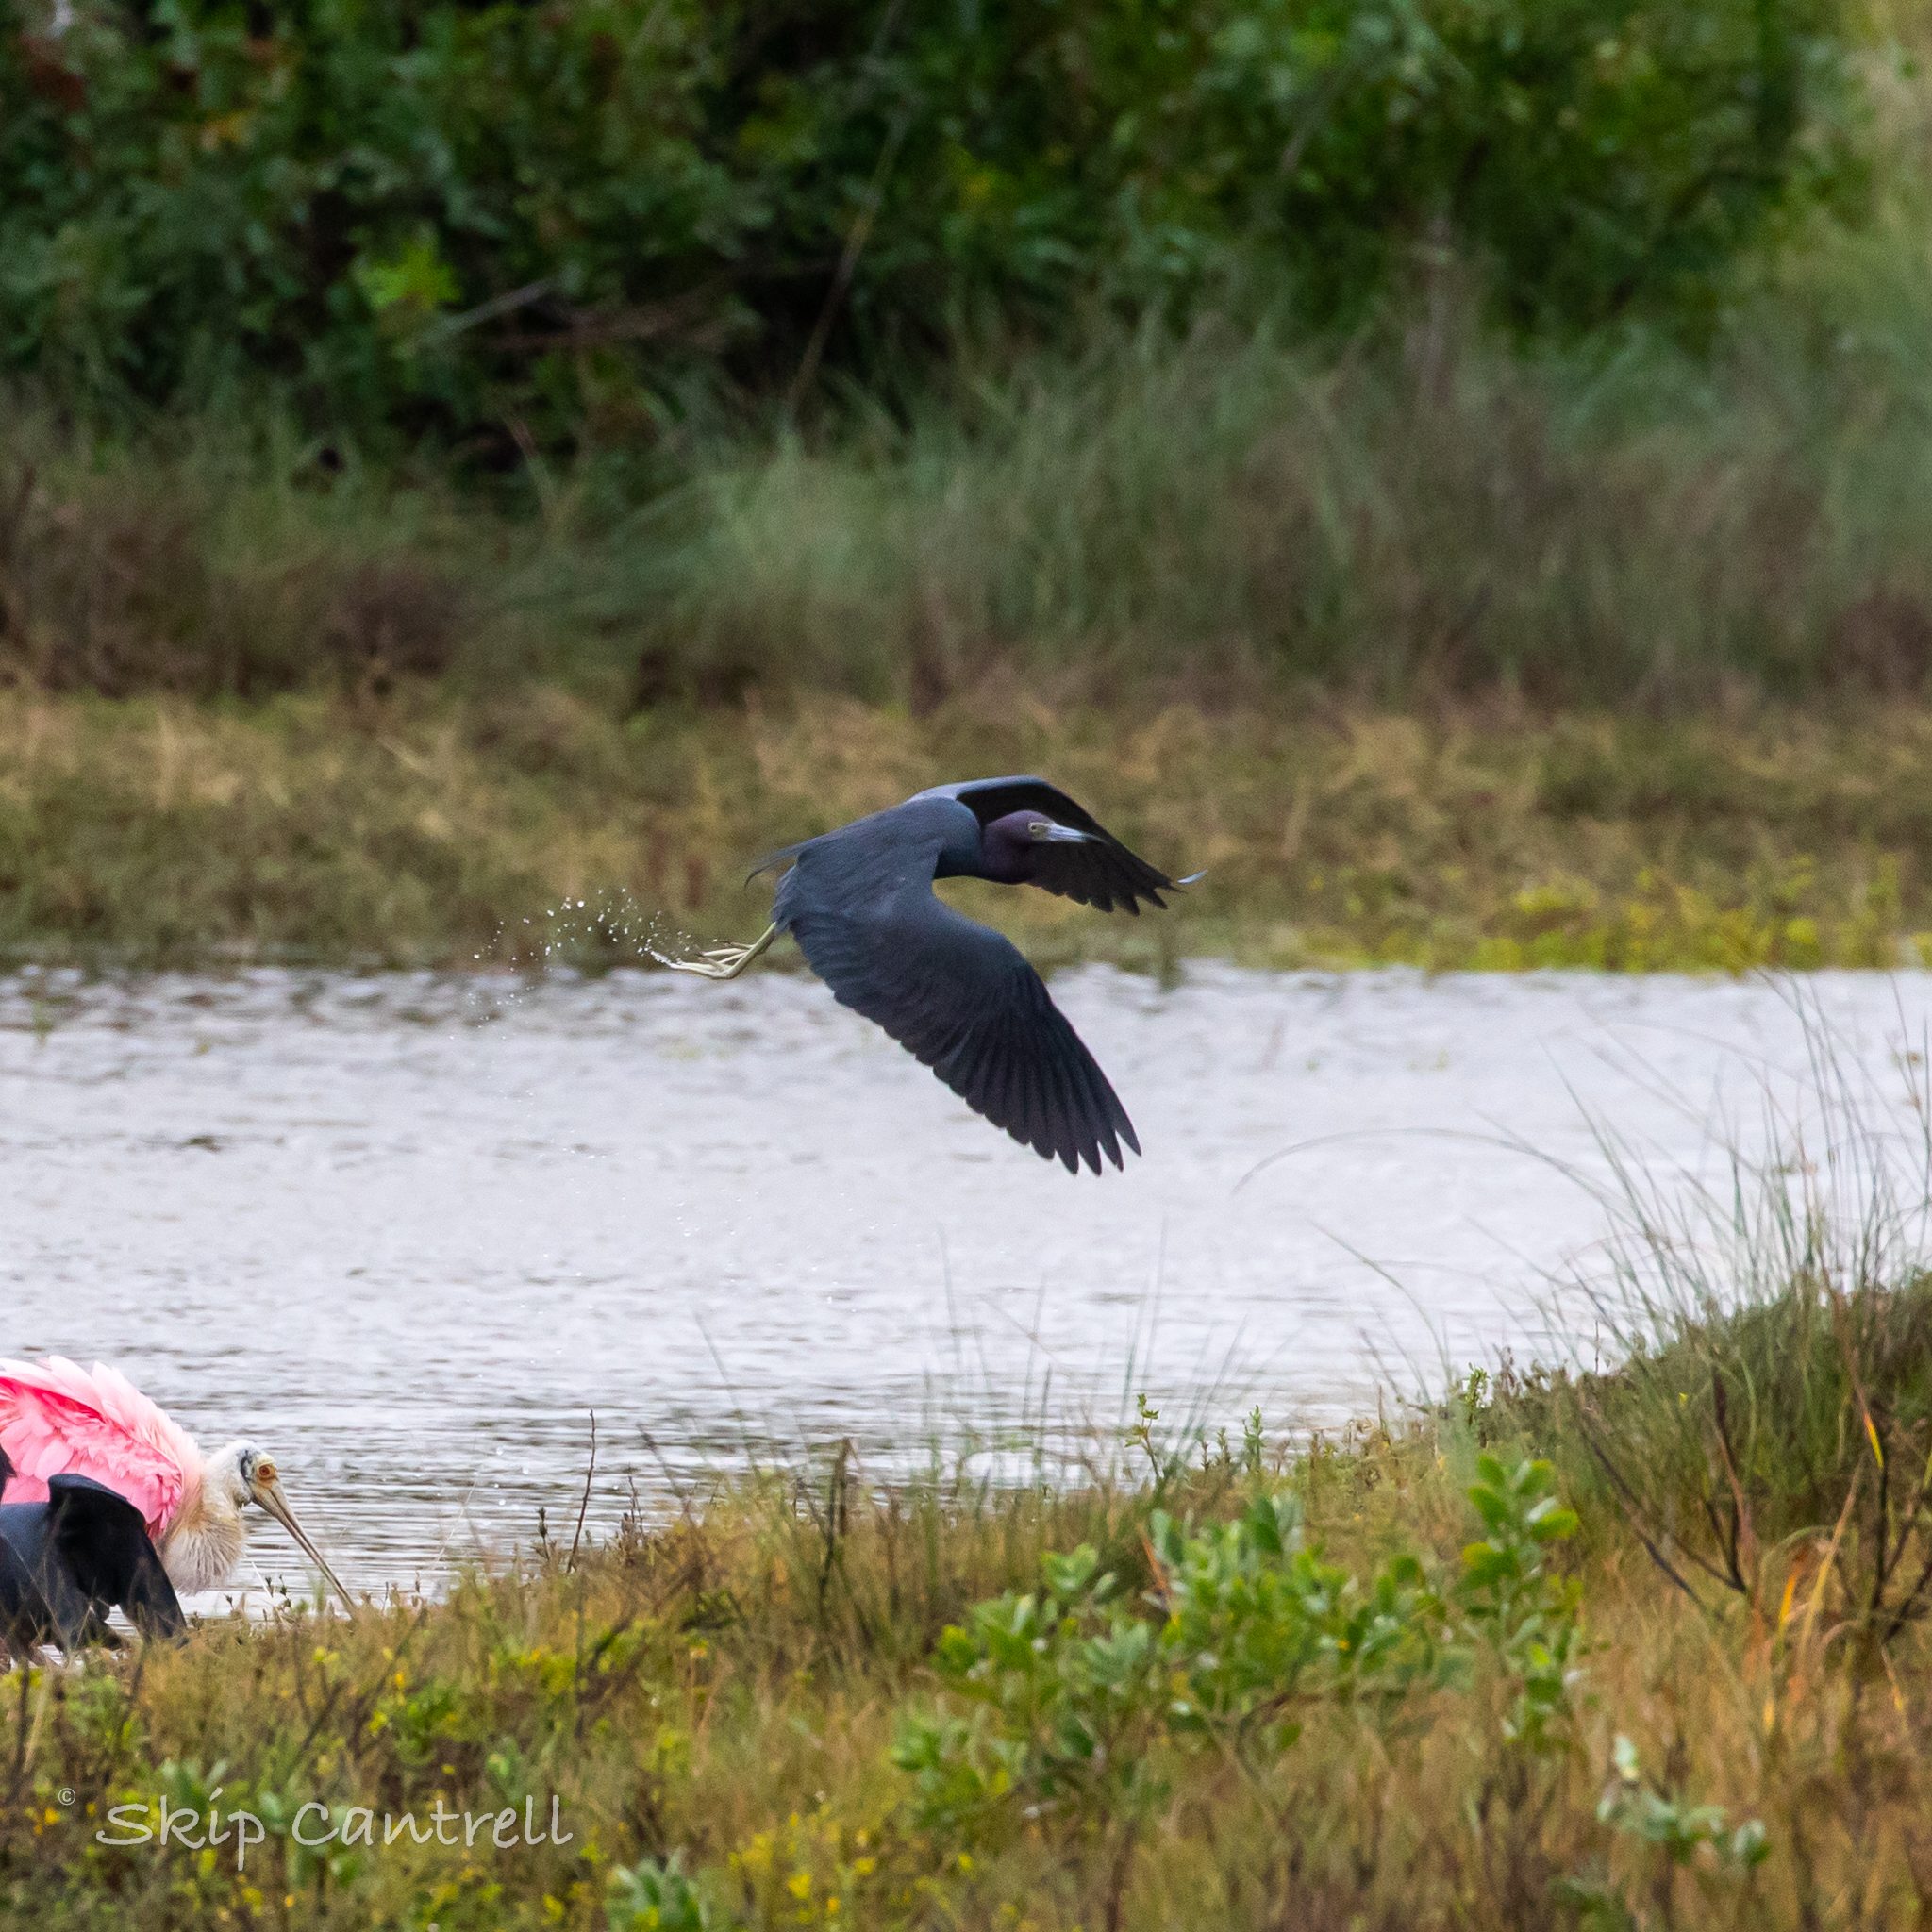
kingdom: Animalia
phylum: Chordata
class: Aves
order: Pelecaniformes
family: Ardeidae
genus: Egretta
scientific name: Egretta caerulea
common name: Little blue heron
